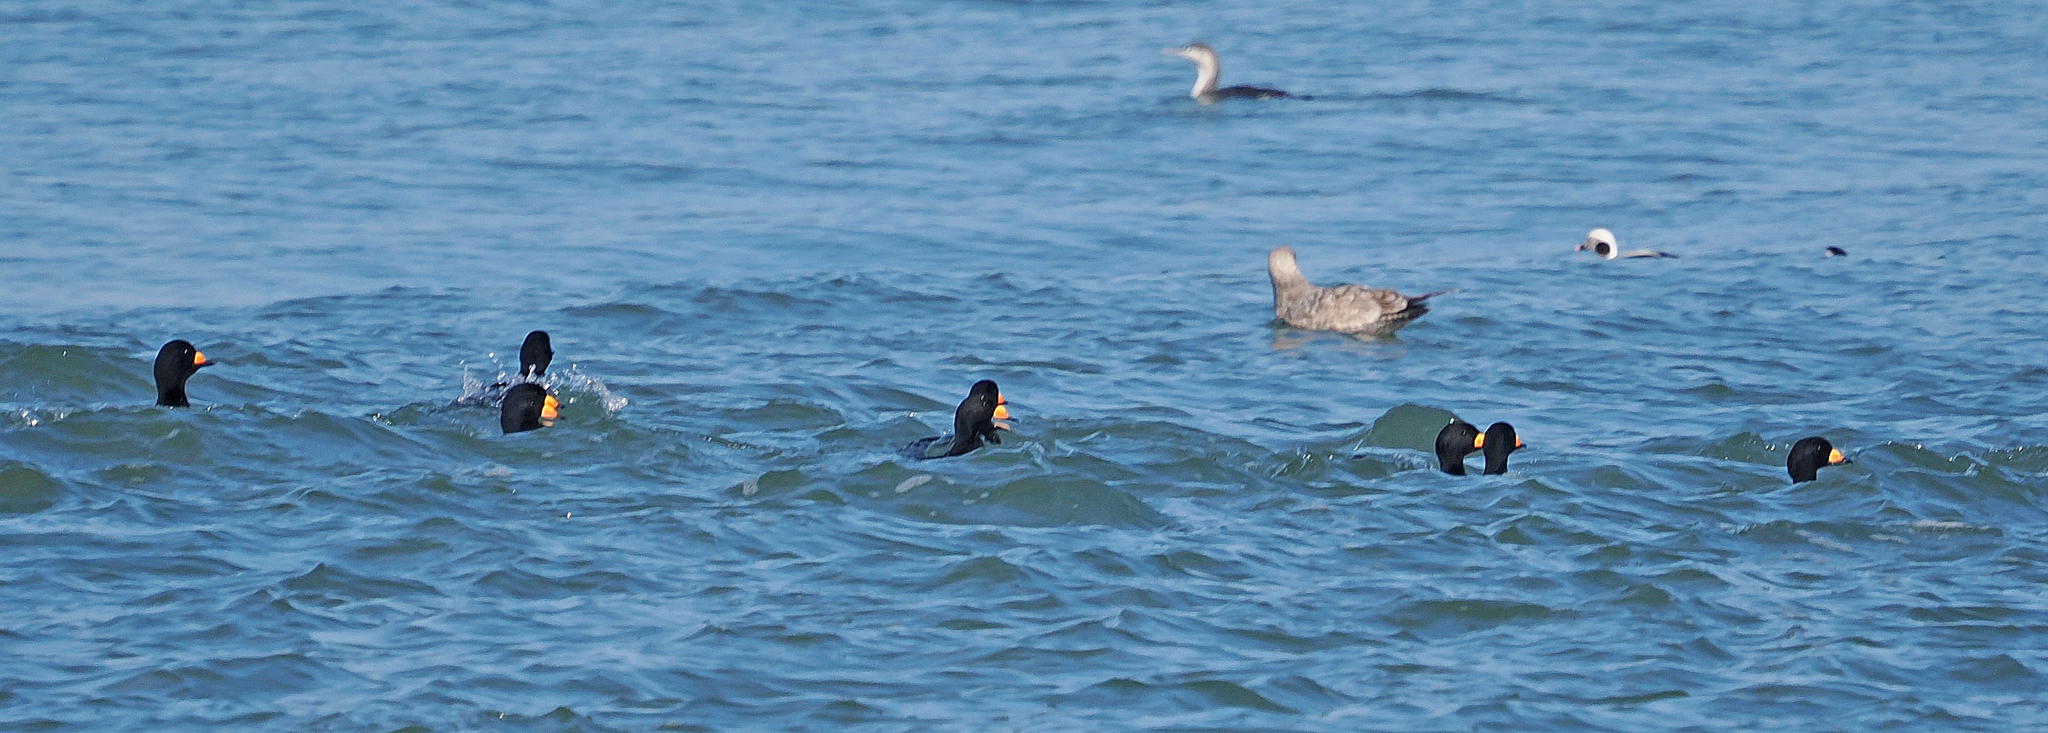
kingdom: Animalia
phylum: Chordata
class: Aves
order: Anseriformes
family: Anatidae
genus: Melanitta
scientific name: Melanitta americana
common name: Black scoter
